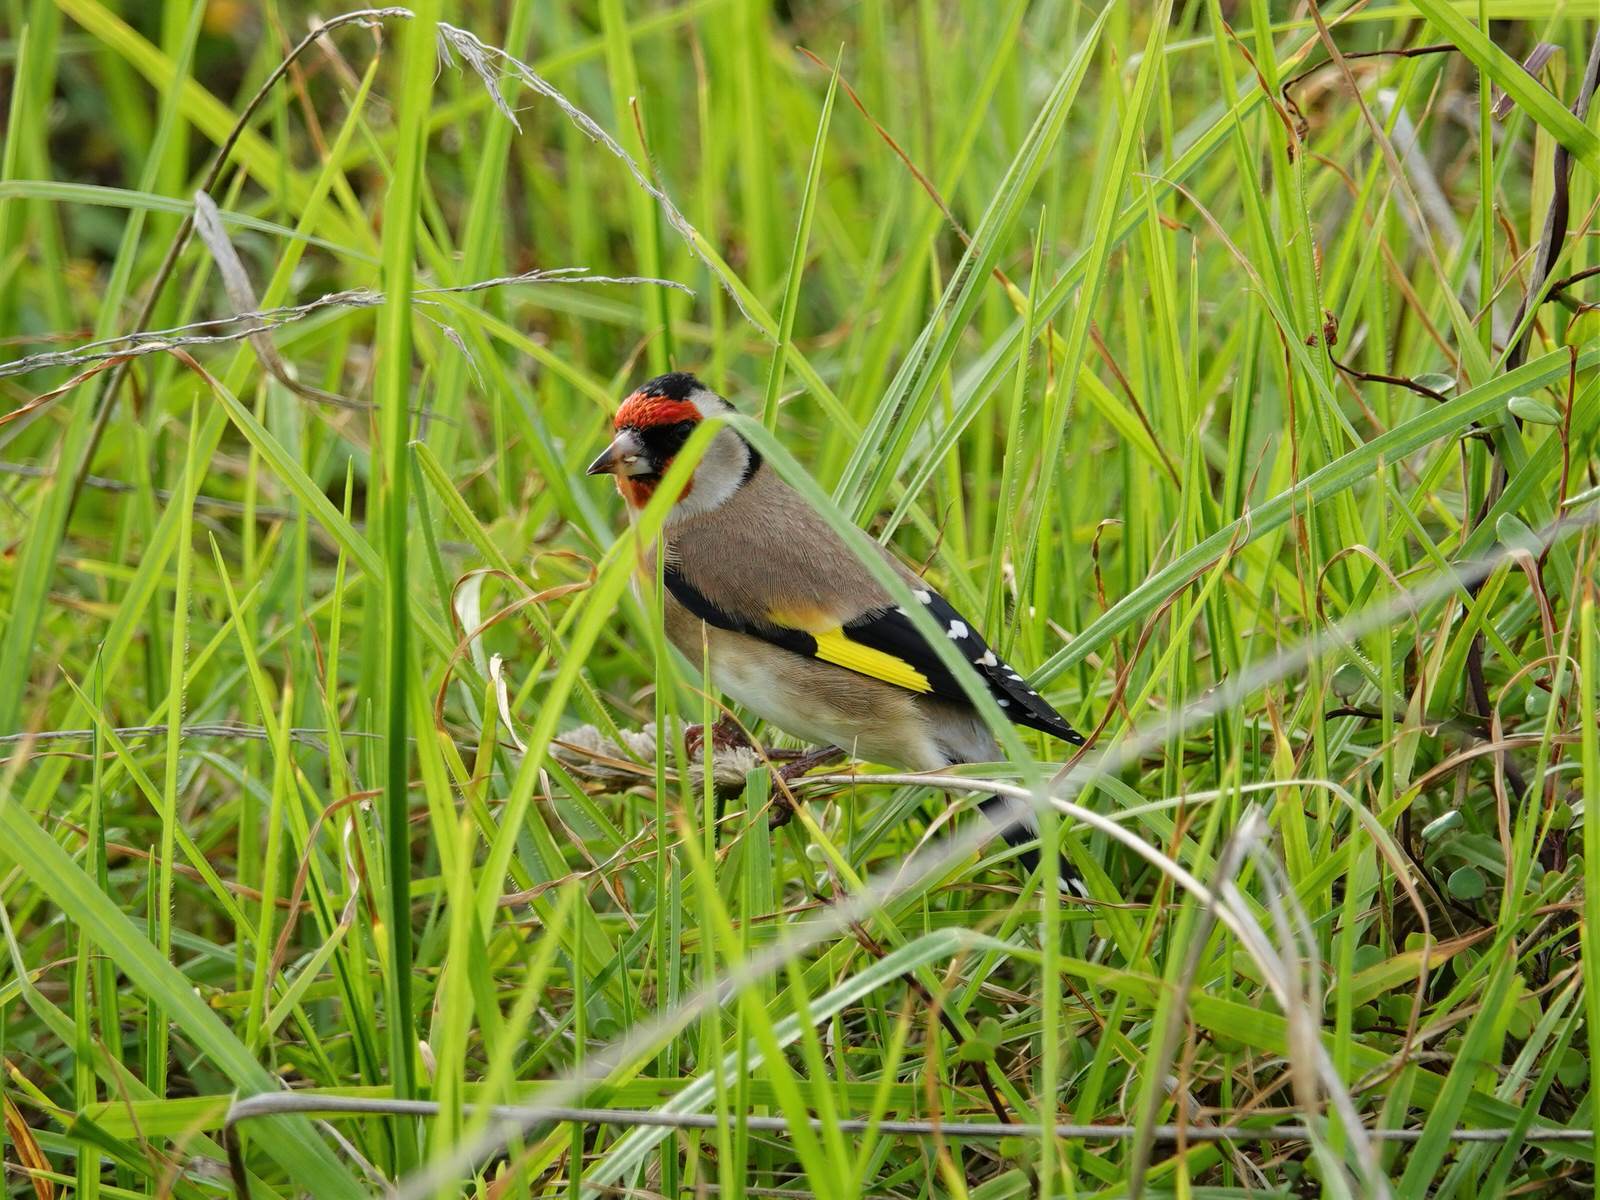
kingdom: Animalia
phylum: Chordata
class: Aves
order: Passeriformes
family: Fringillidae
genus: Carduelis
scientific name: Carduelis carduelis
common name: European goldfinch
